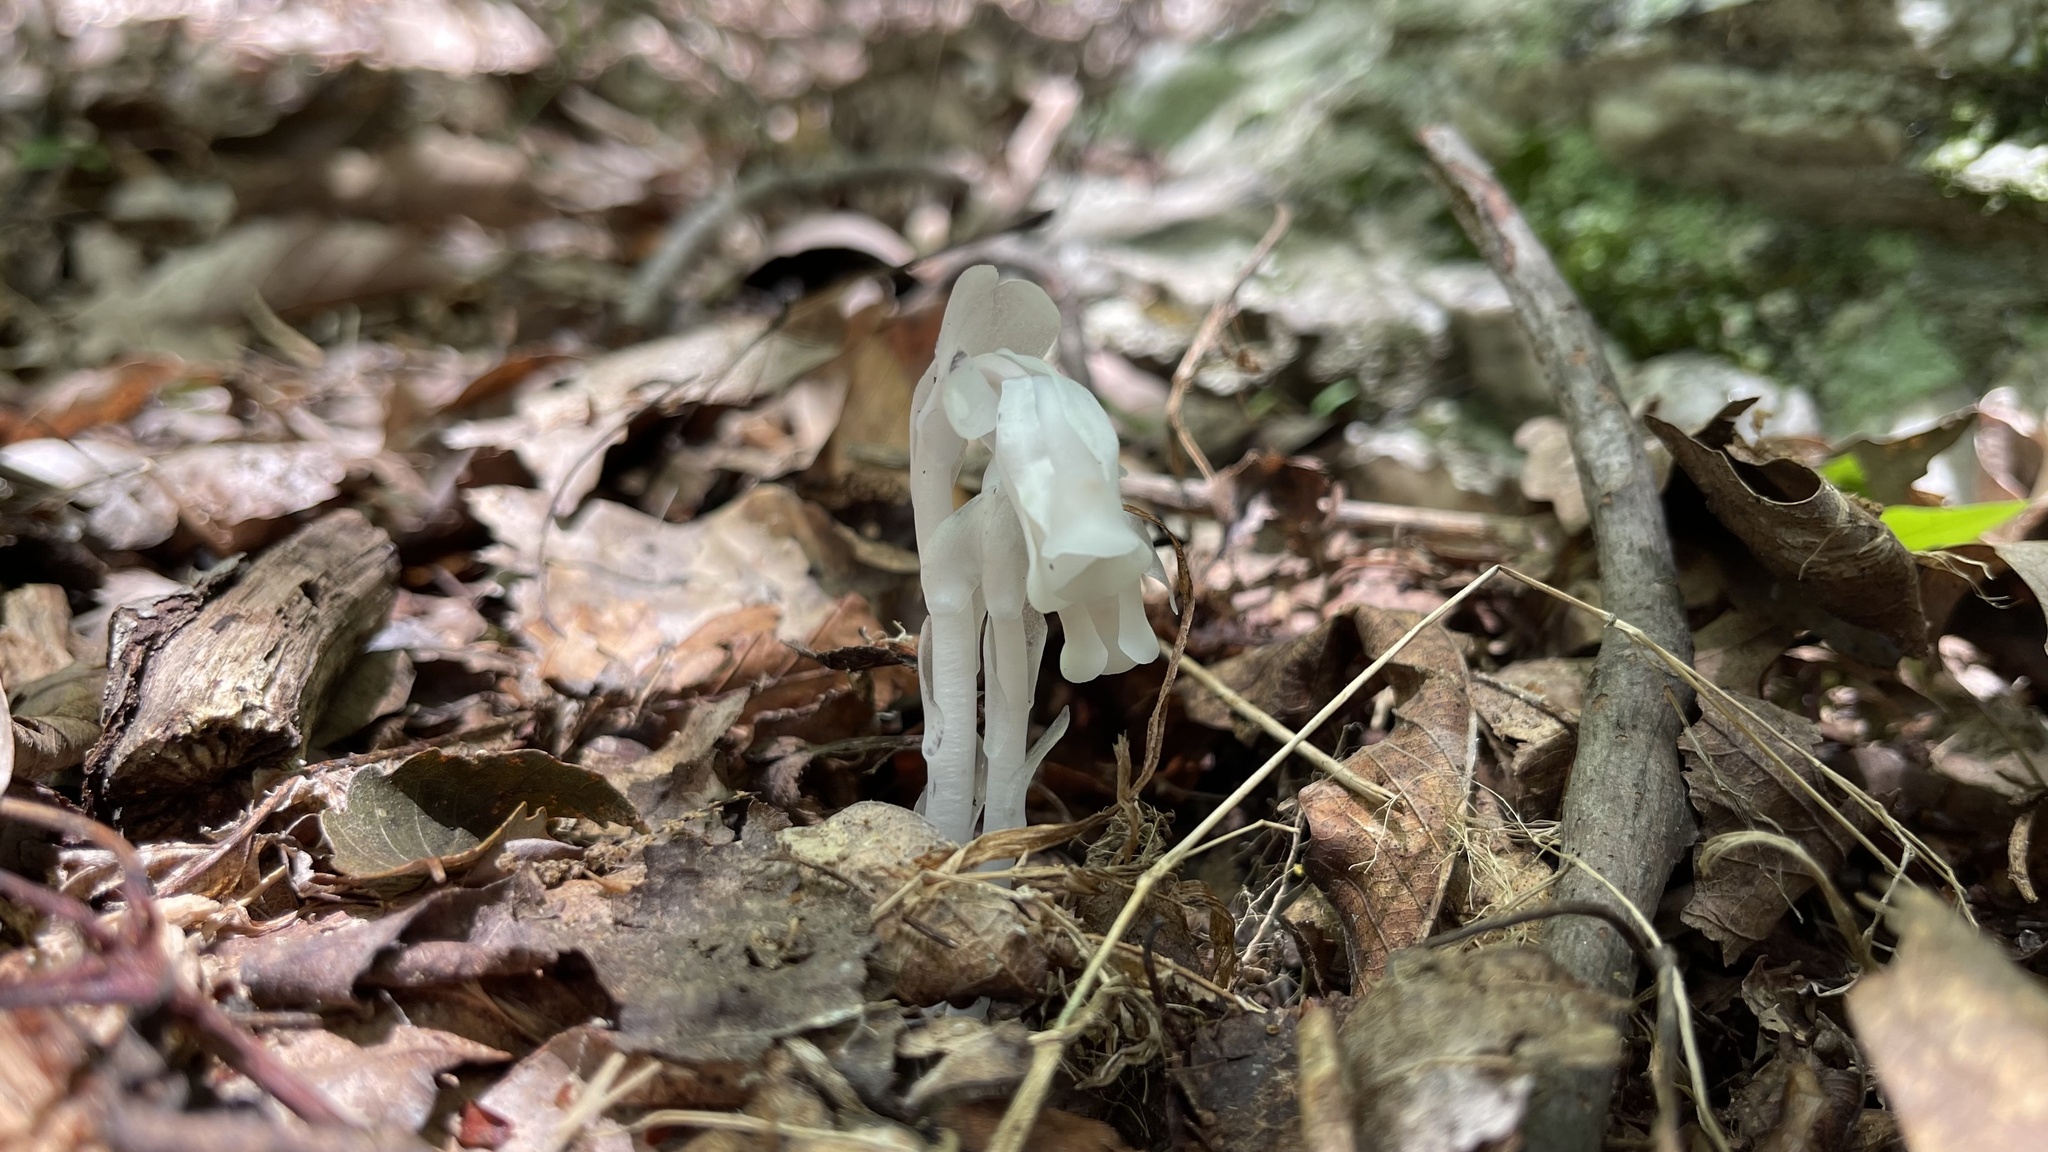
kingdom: Plantae
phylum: Tracheophyta
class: Magnoliopsida
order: Ericales
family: Ericaceae
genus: Monotropa
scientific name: Monotropa uniflora
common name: Convulsion root
